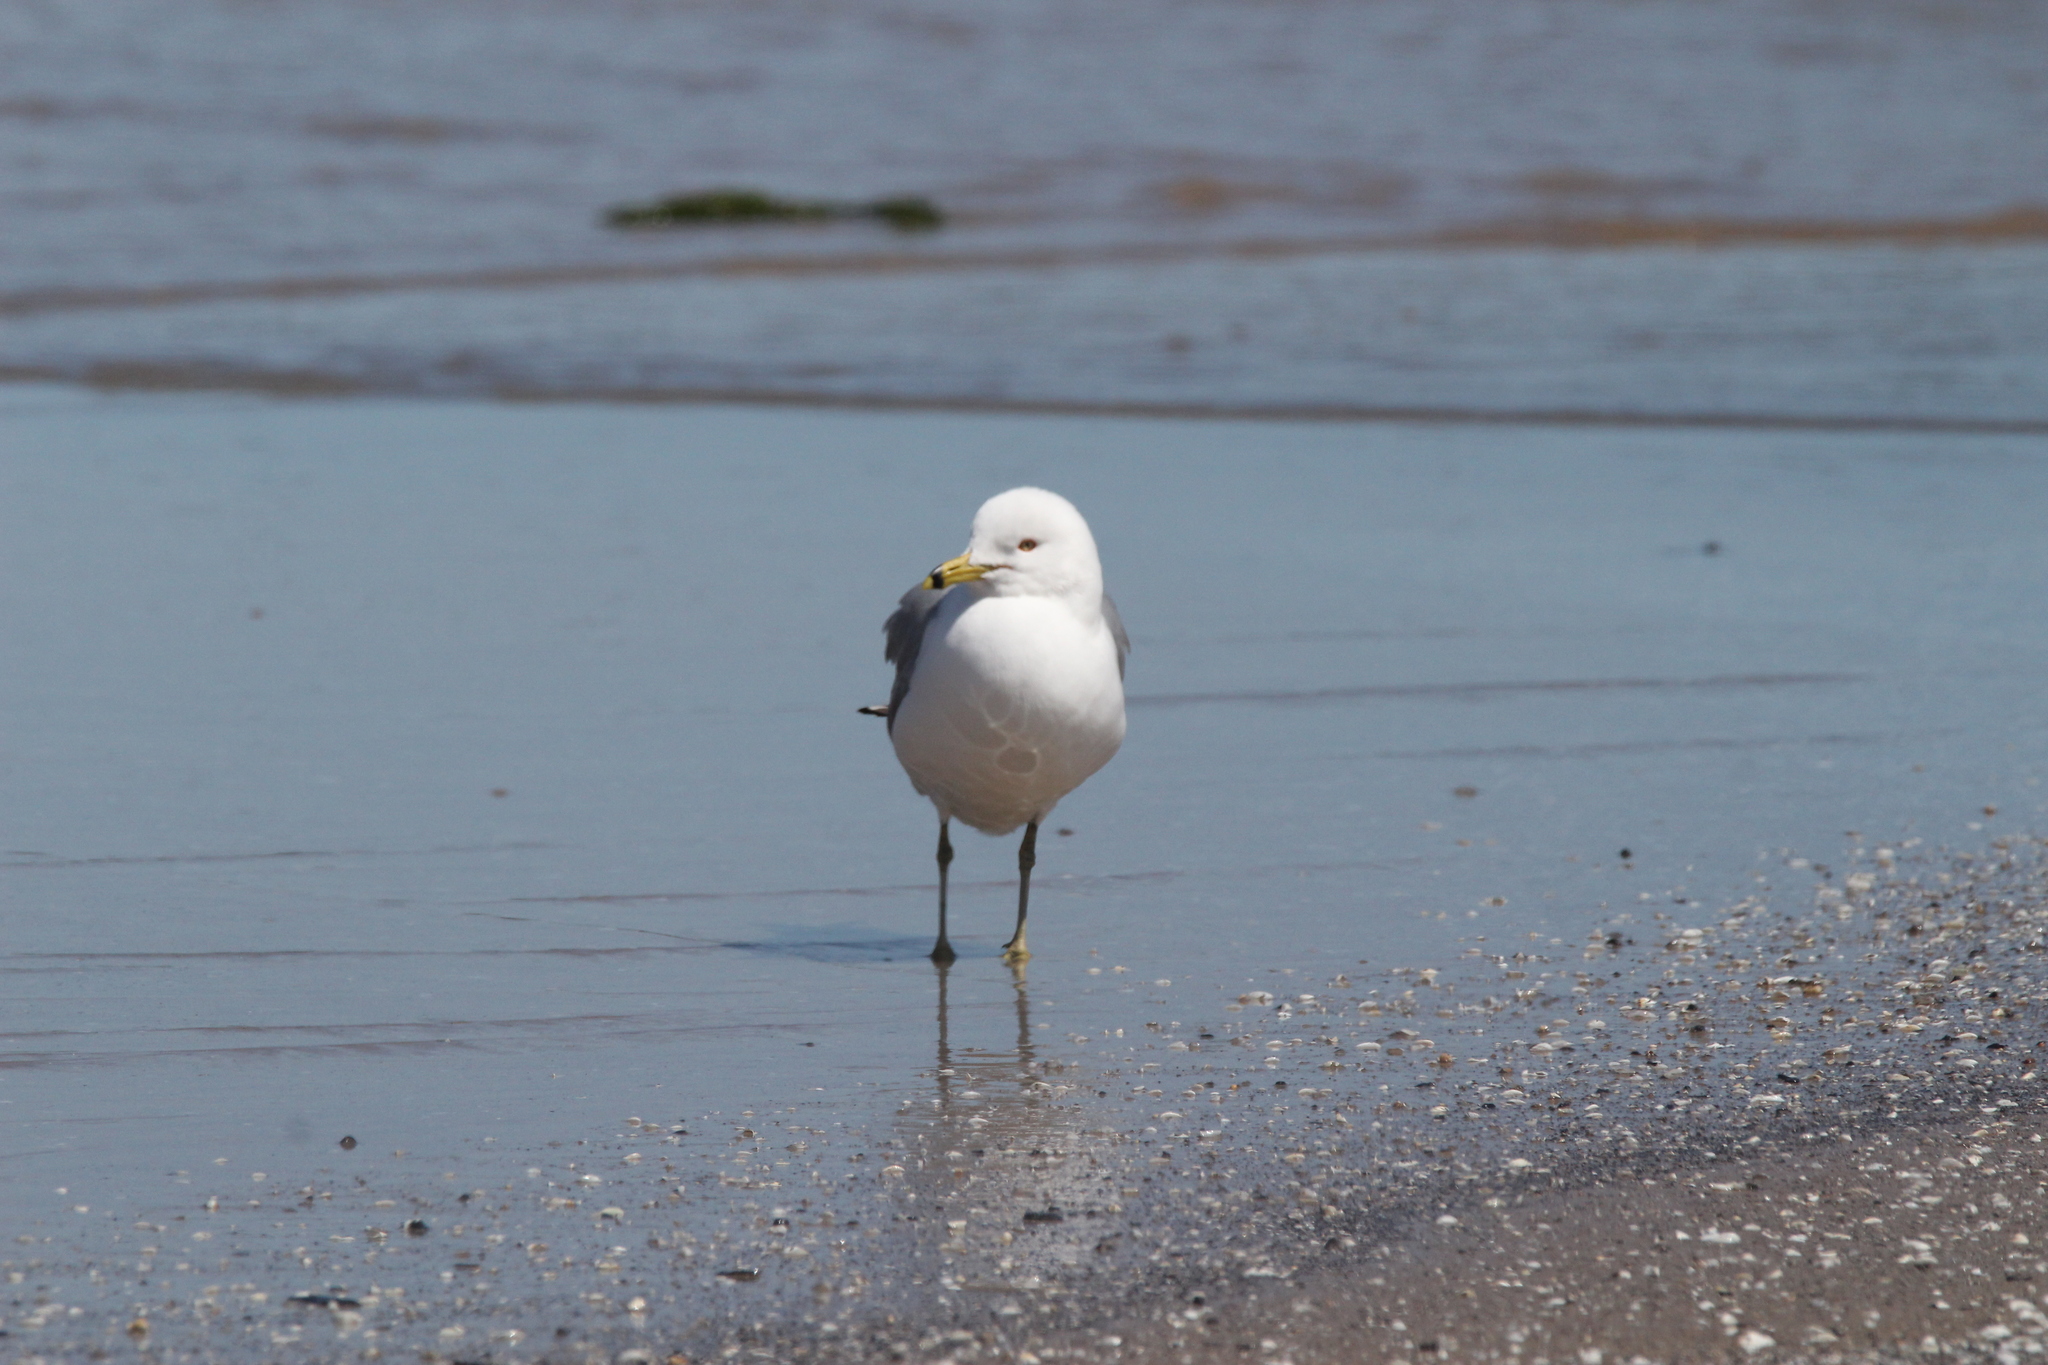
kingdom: Animalia
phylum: Chordata
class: Aves
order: Charadriiformes
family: Laridae
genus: Larus
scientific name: Larus delawarensis
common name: Ring-billed gull
